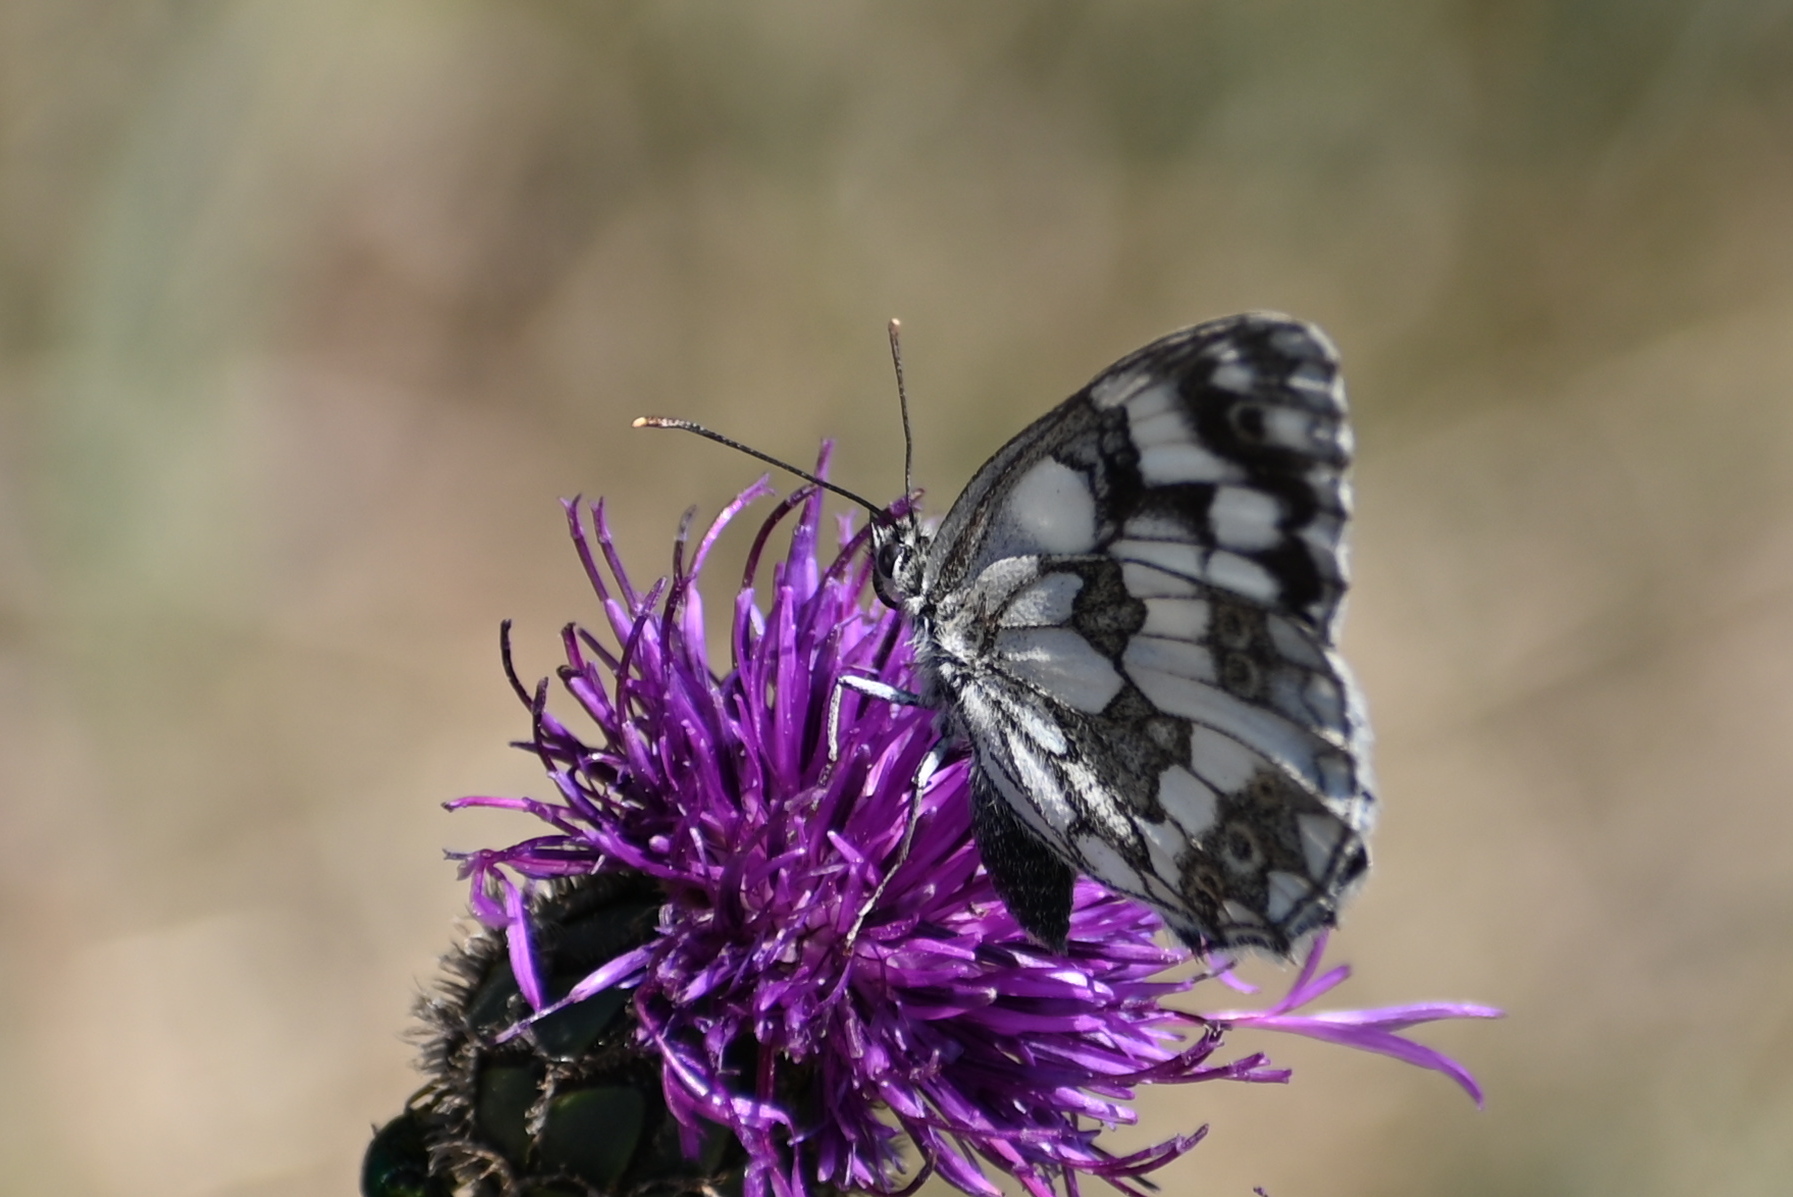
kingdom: Animalia
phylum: Arthropoda
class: Insecta
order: Lepidoptera
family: Nymphalidae
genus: Melanargia
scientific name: Melanargia galathea
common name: Marbled white
